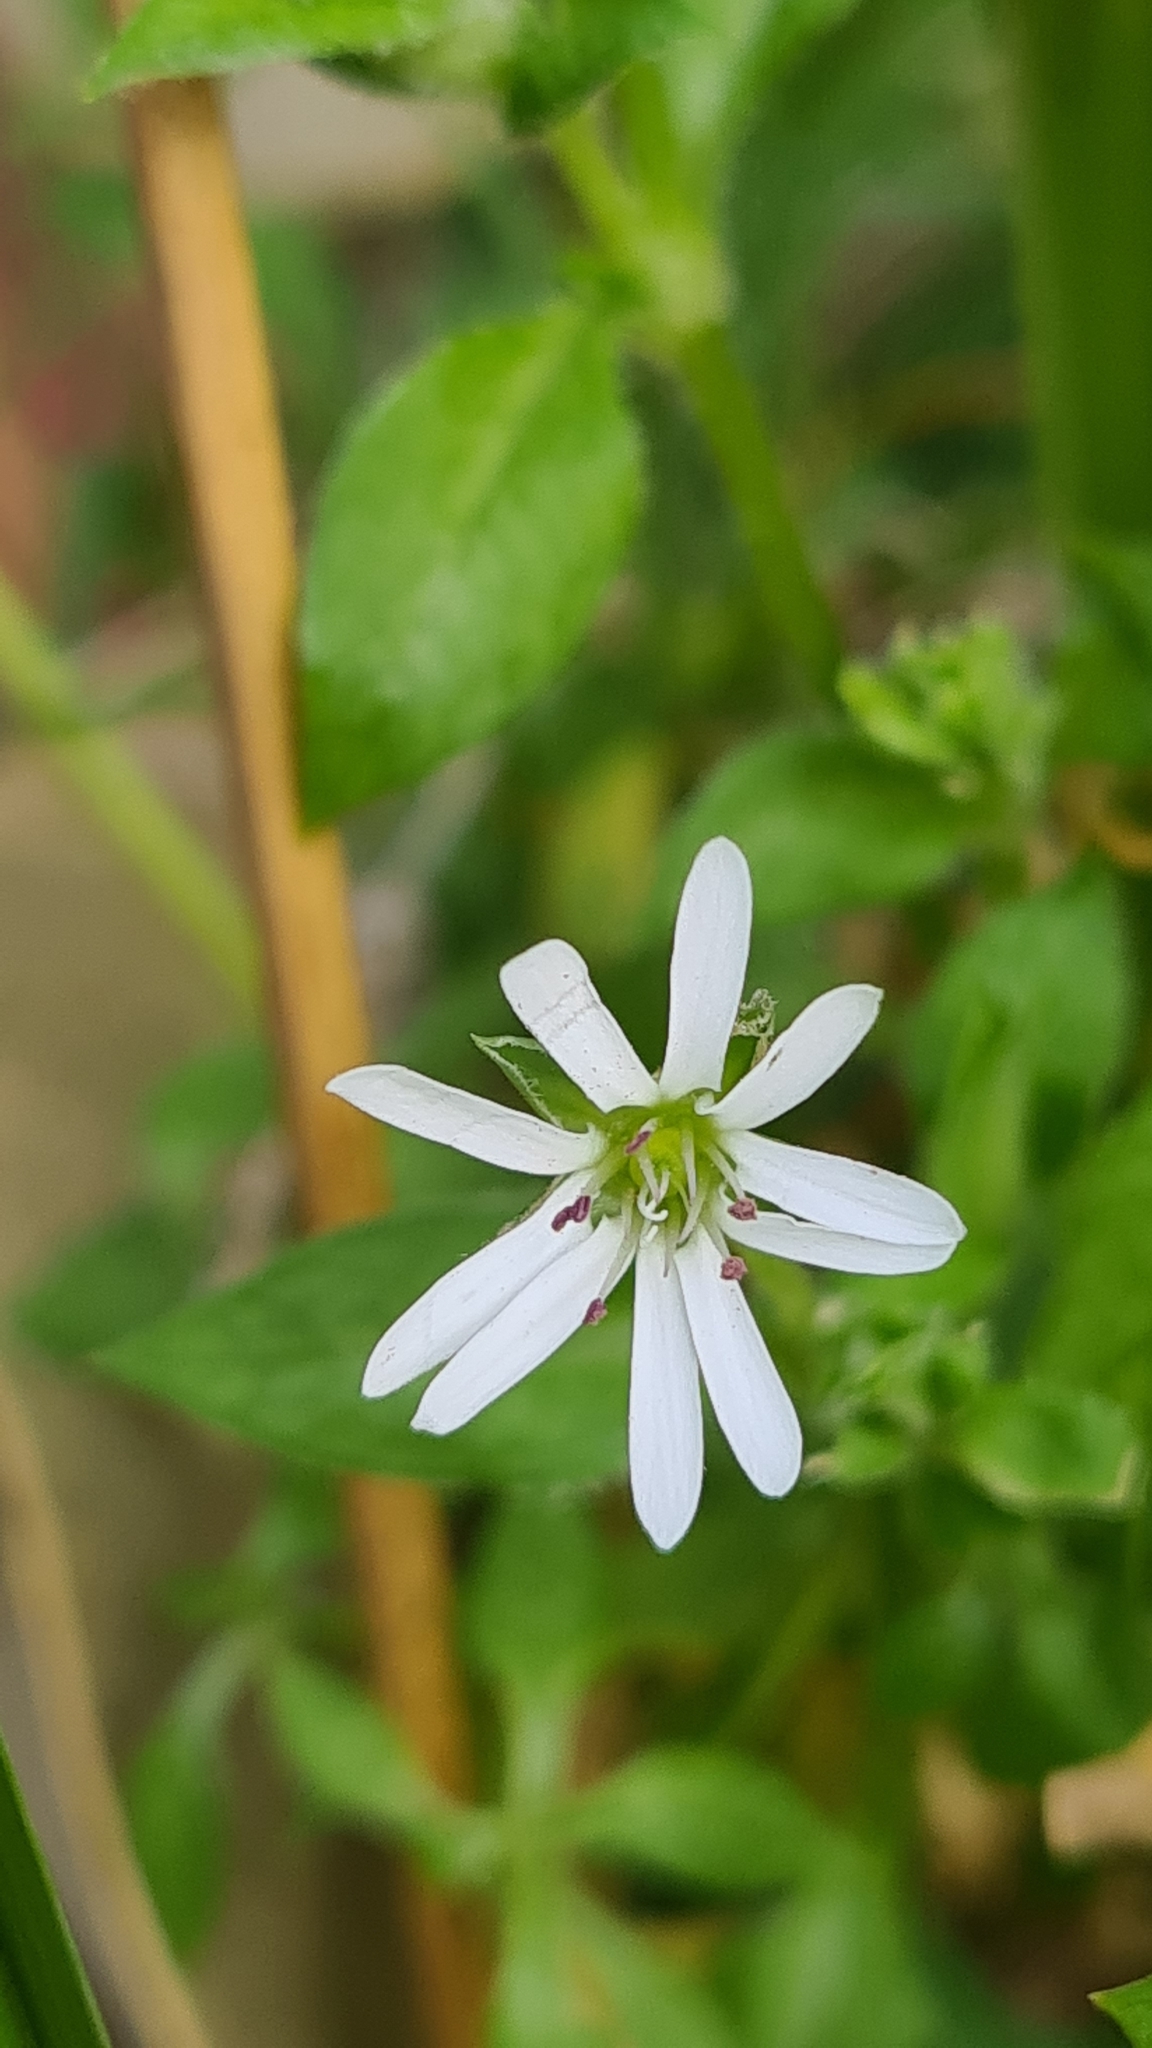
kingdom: Plantae
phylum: Tracheophyta
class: Magnoliopsida
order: Caryophyllales
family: Caryophyllaceae
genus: Stellaria
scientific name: Stellaria flaccida
